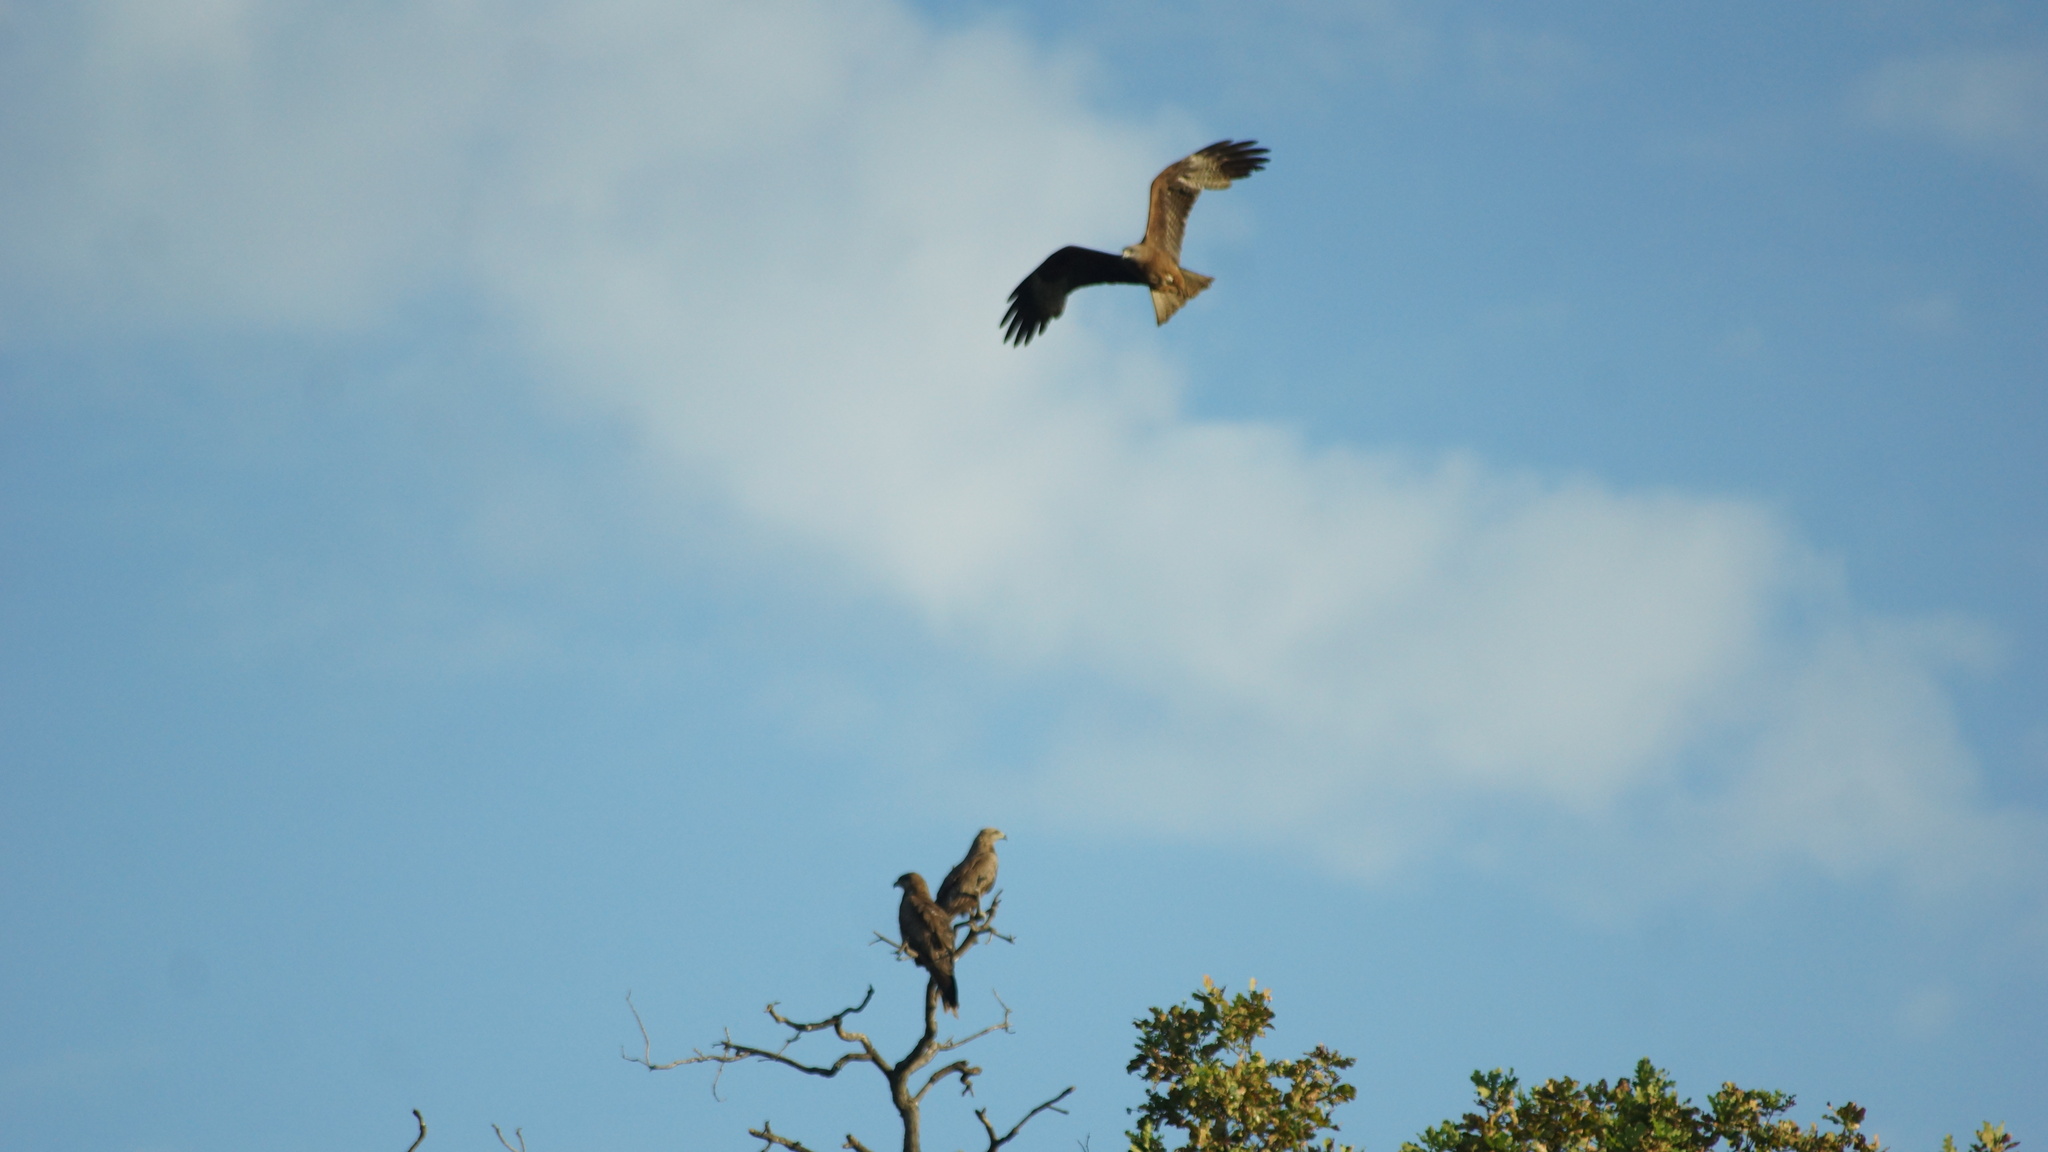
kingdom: Animalia
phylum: Chordata
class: Aves
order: Accipitriformes
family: Accipitridae
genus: Milvus
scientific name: Milvus migrans
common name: Black kite
